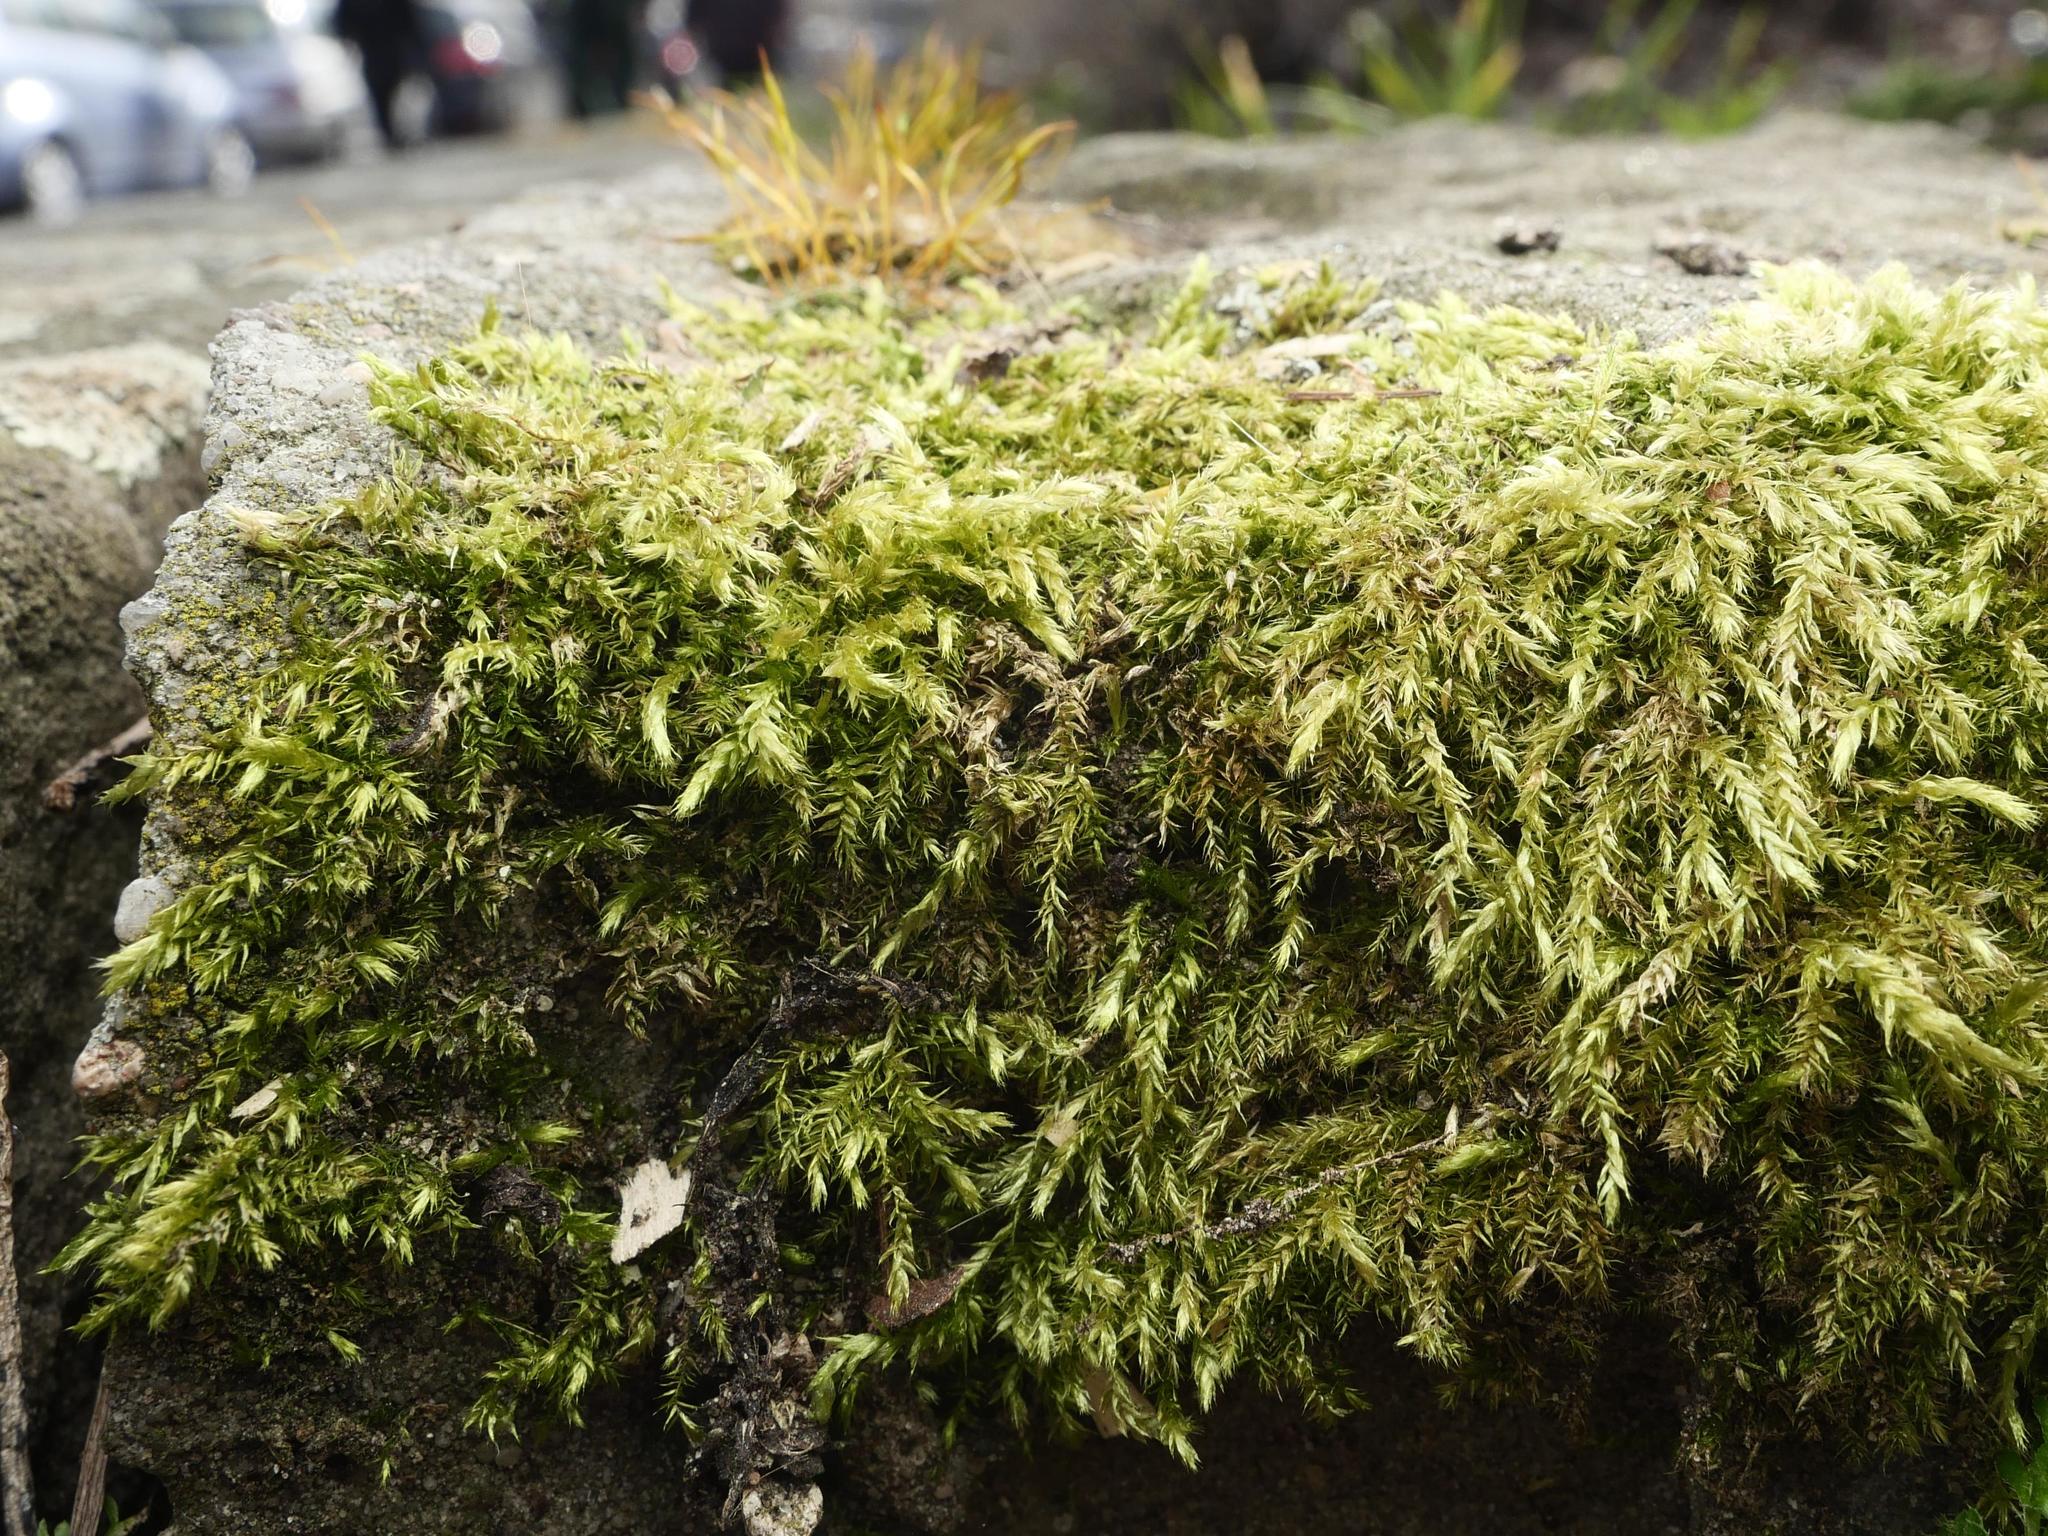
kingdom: Plantae
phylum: Bryophyta
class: Bryopsida
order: Hypnales
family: Brachytheciaceae
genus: Brachythecium
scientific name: Brachythecium rutabulum
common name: Rough-stalked feather-moss
